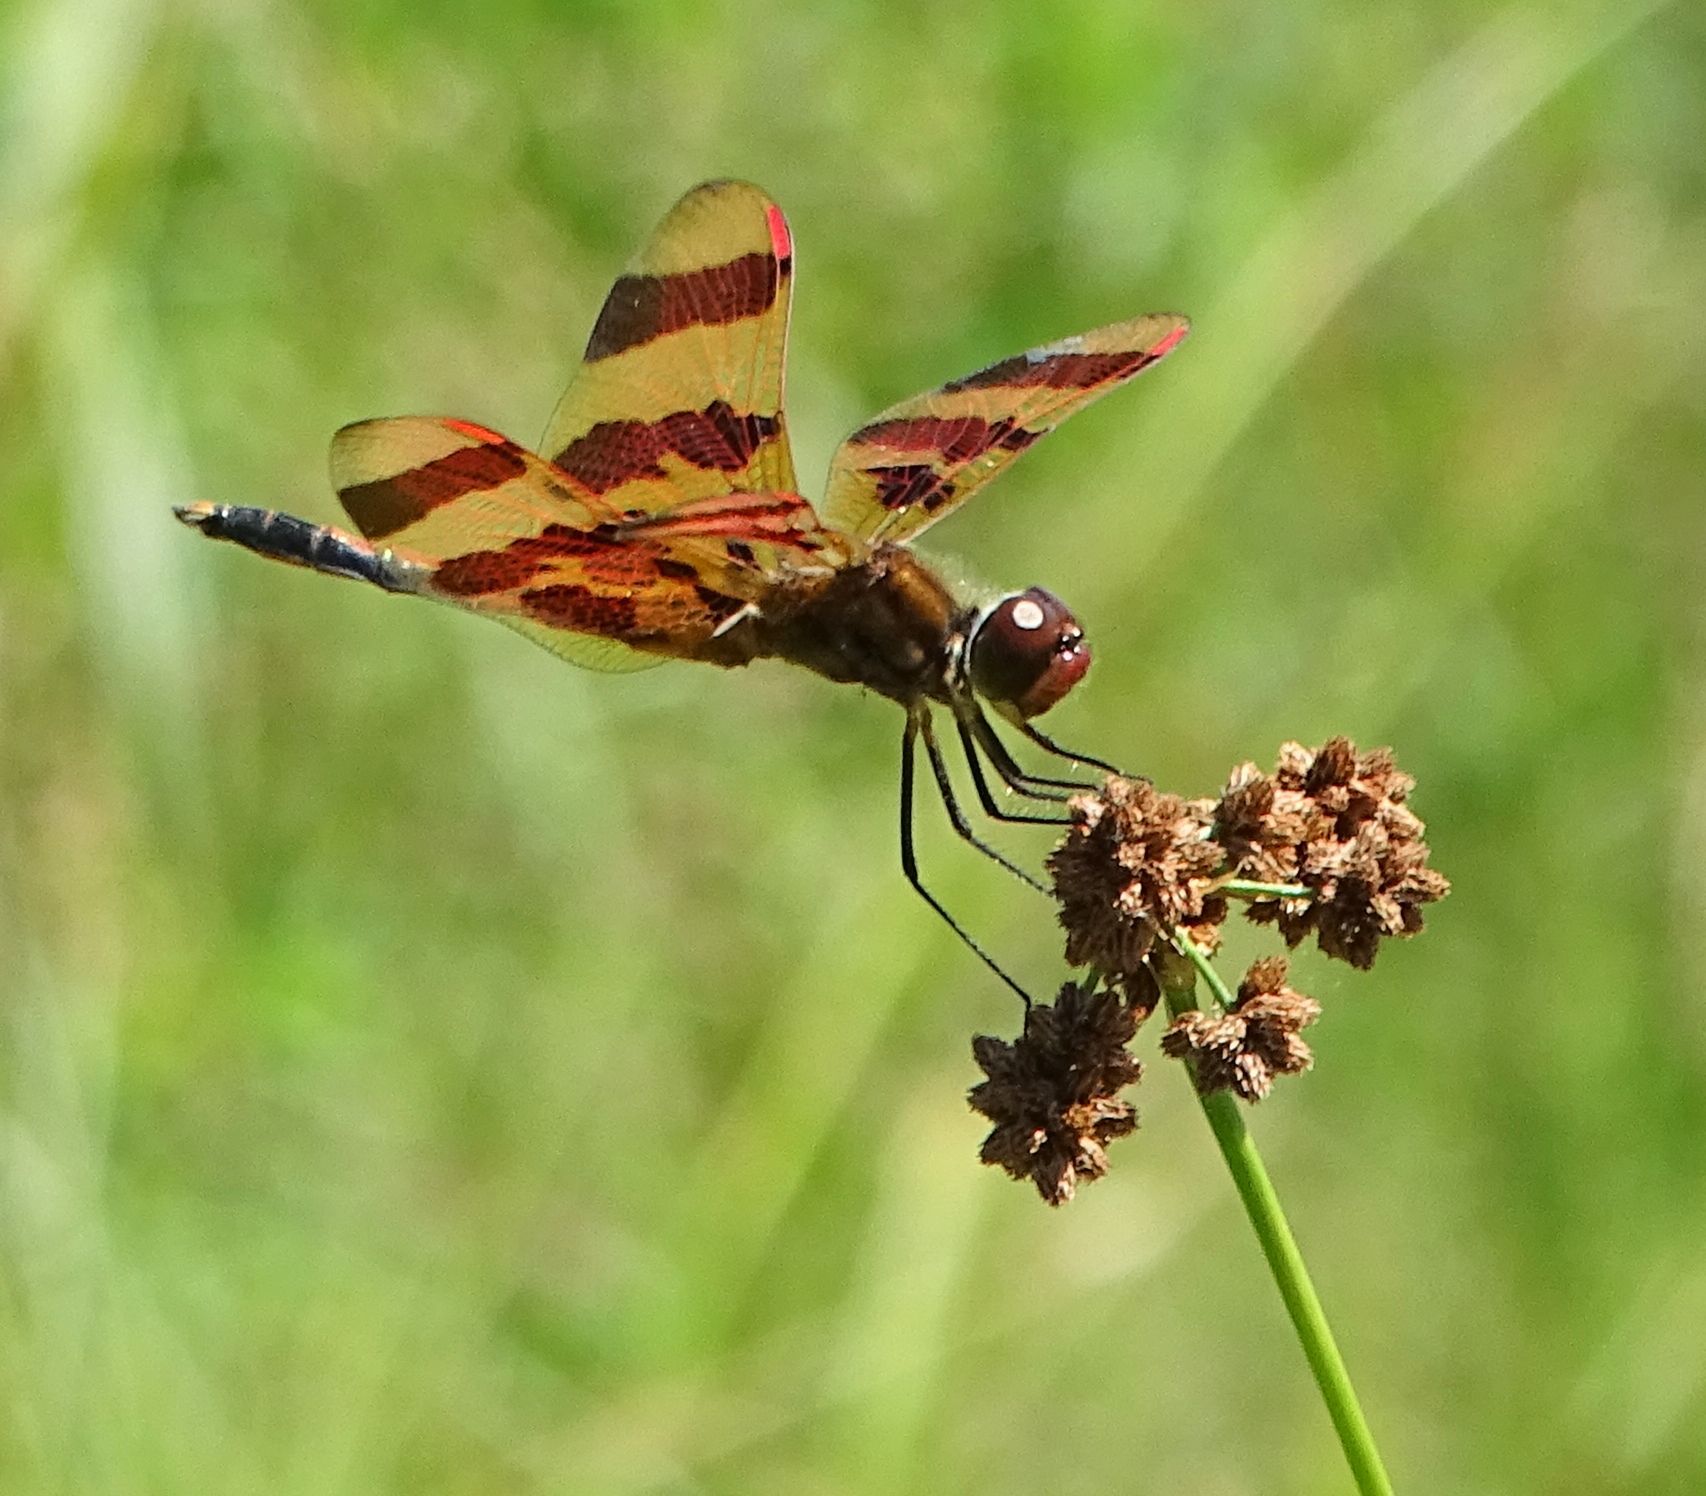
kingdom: Animalia
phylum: Arthropoda
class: Insecta
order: Odonata
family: Libellulidae
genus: Celithemis
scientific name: Celithemis eponina
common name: Halloween pennant
